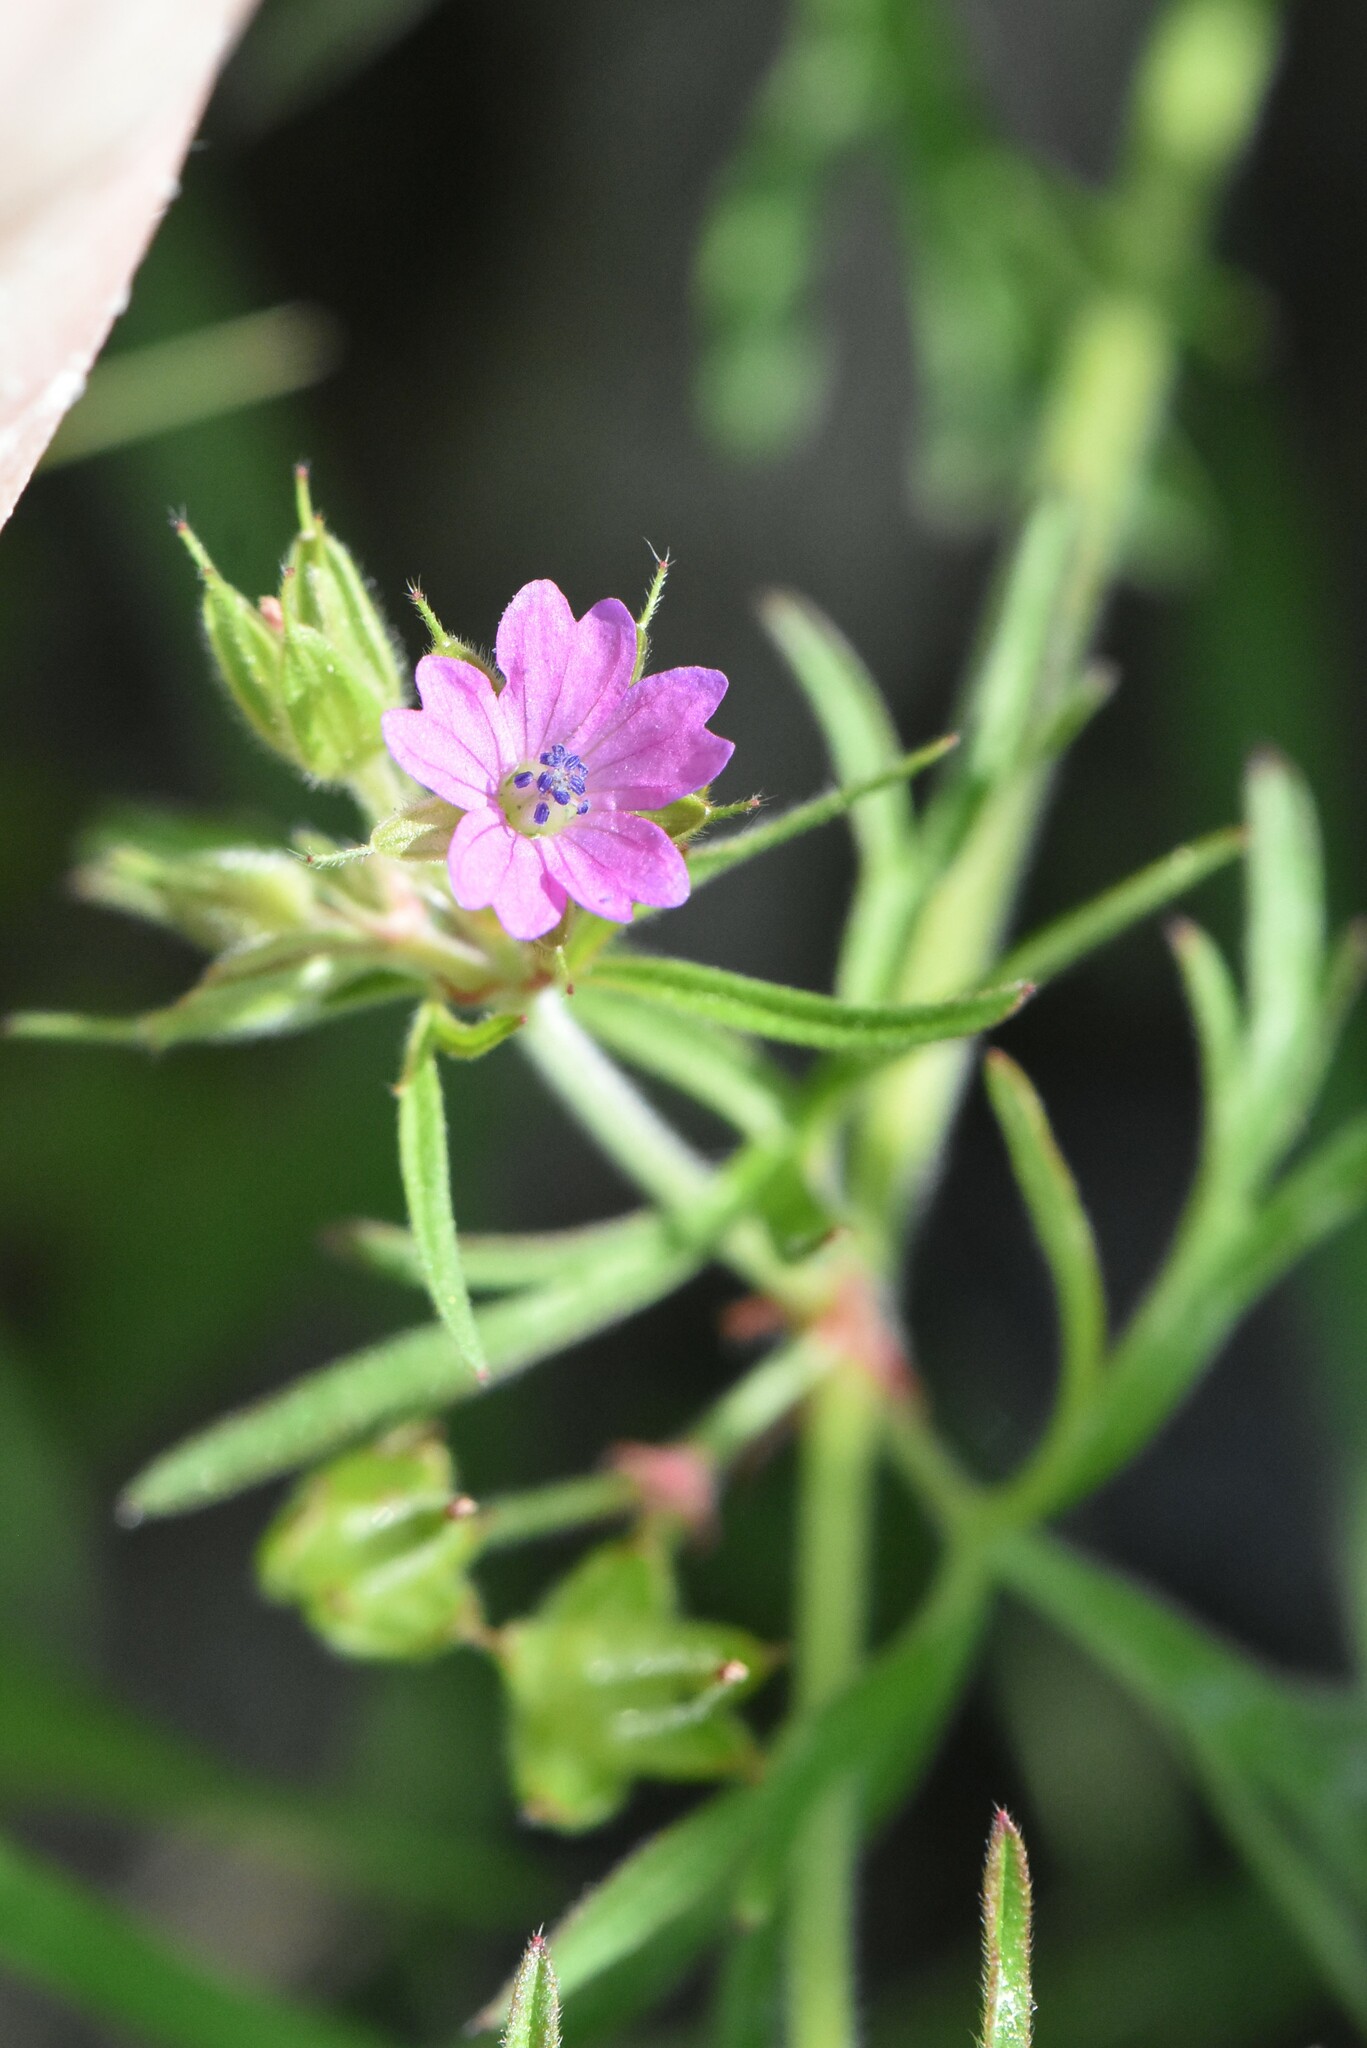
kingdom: Plantae
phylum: Tracheophyta
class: Magnoliopsida
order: Geraniales
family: Geraniaceae
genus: Geranium
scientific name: Geranium dissectum
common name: Cut-leaved crane's-bill
